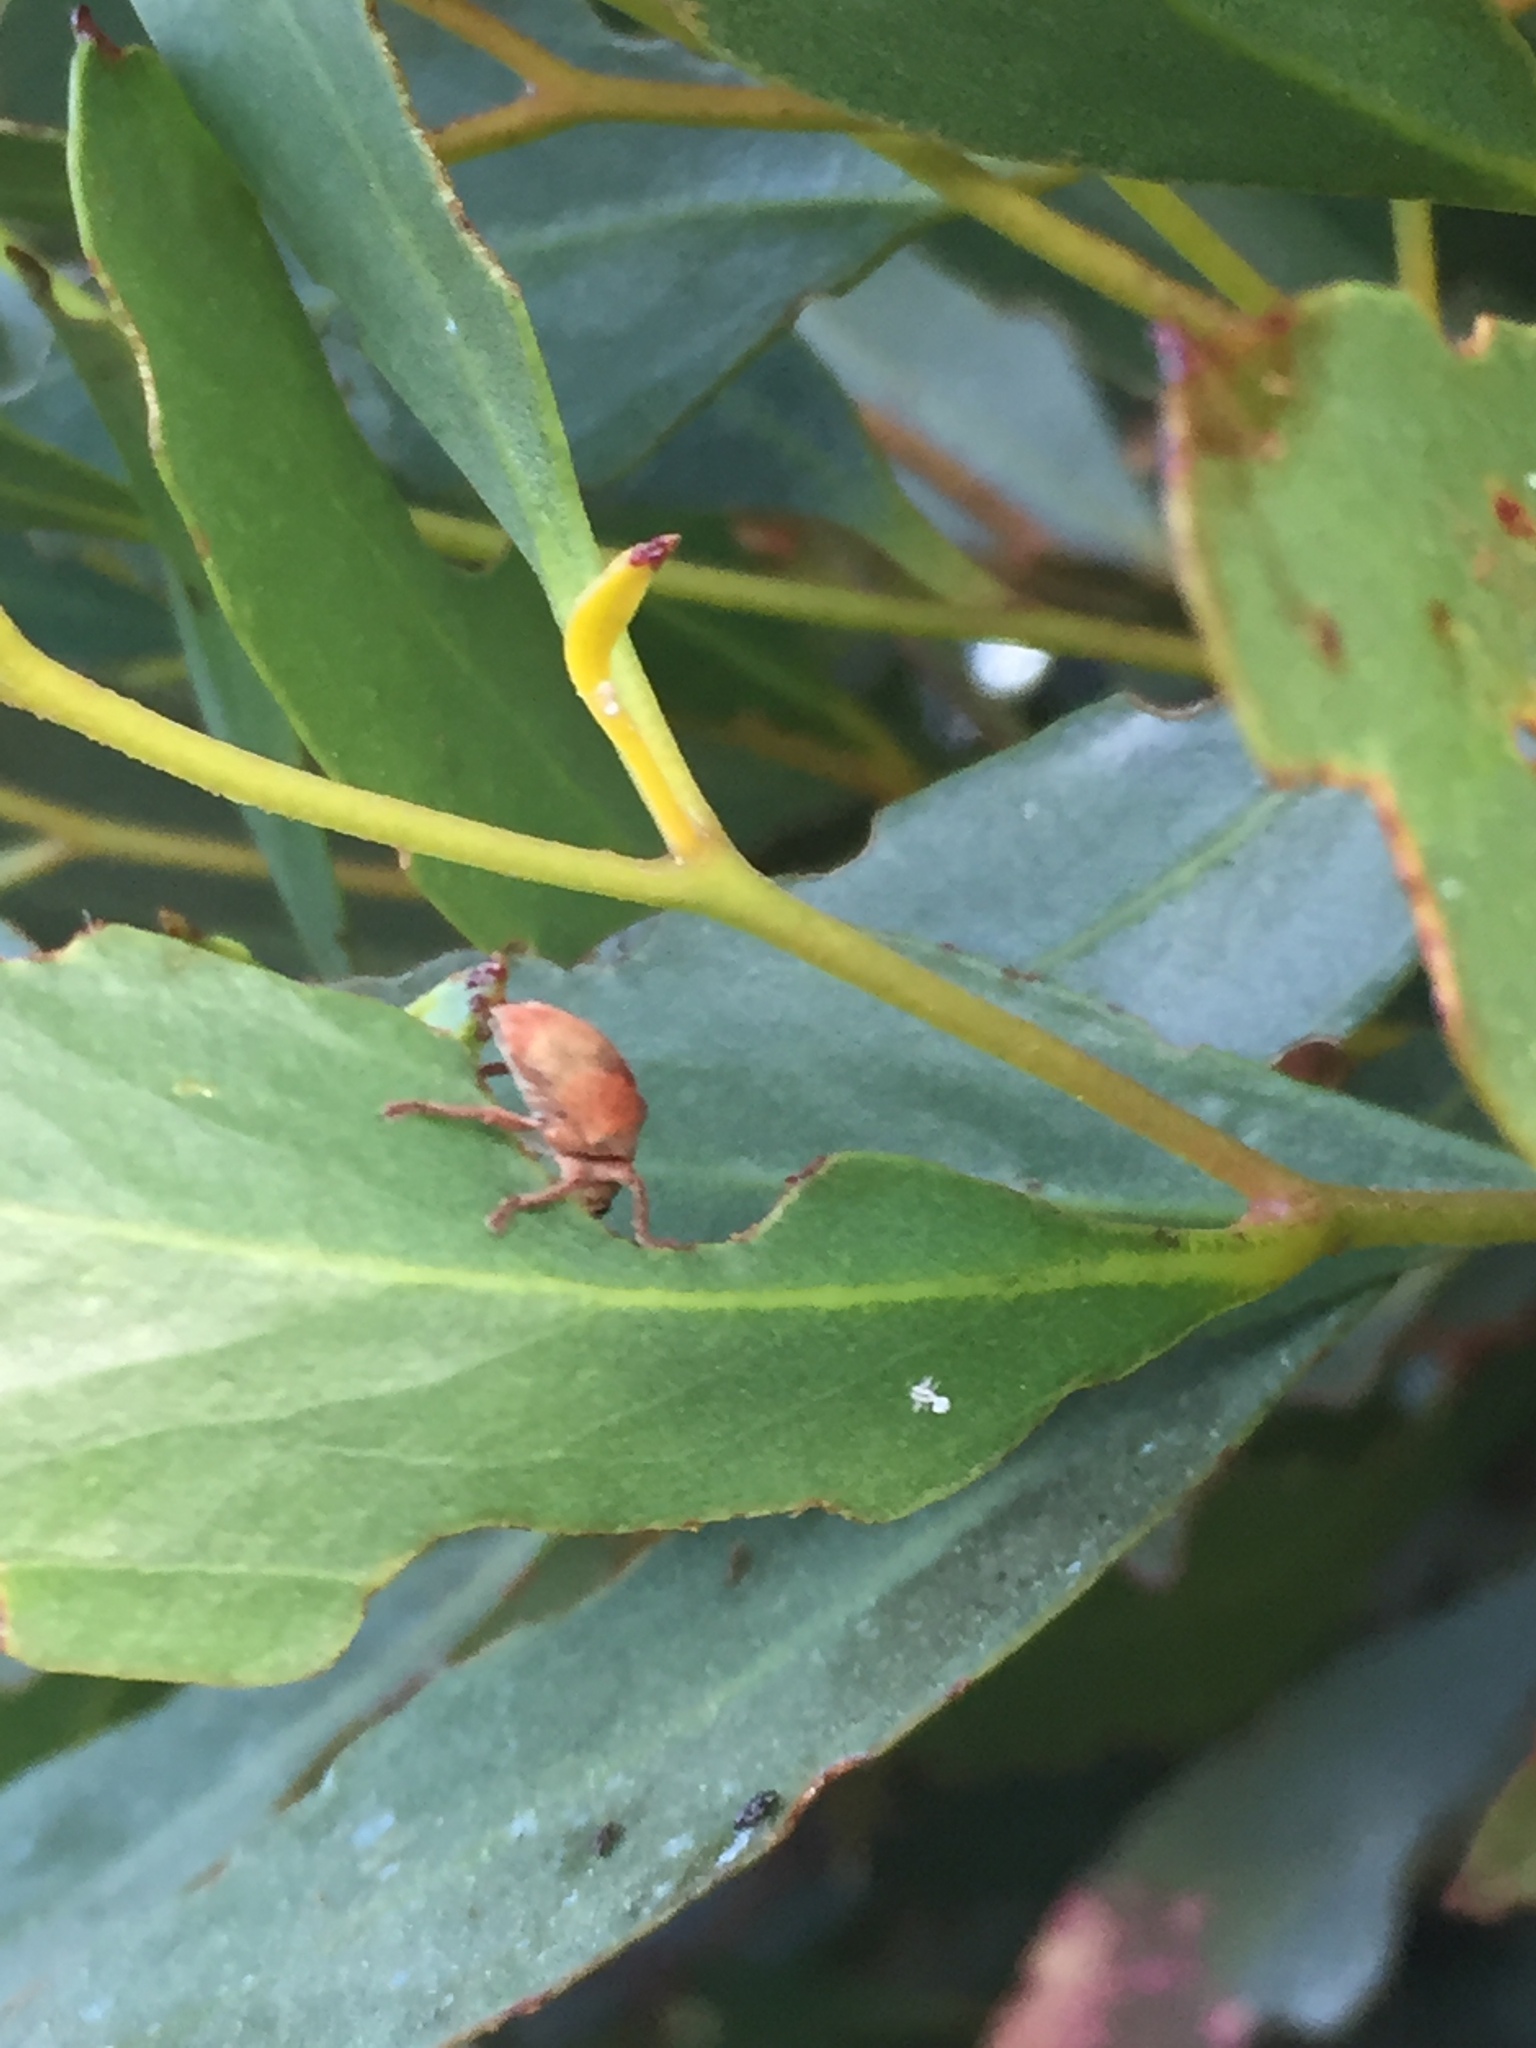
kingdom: Animalia
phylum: Arthropoda
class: Insecta
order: Coleoptera
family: Curculionidae
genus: Gonipterus
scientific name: Gonipterus
